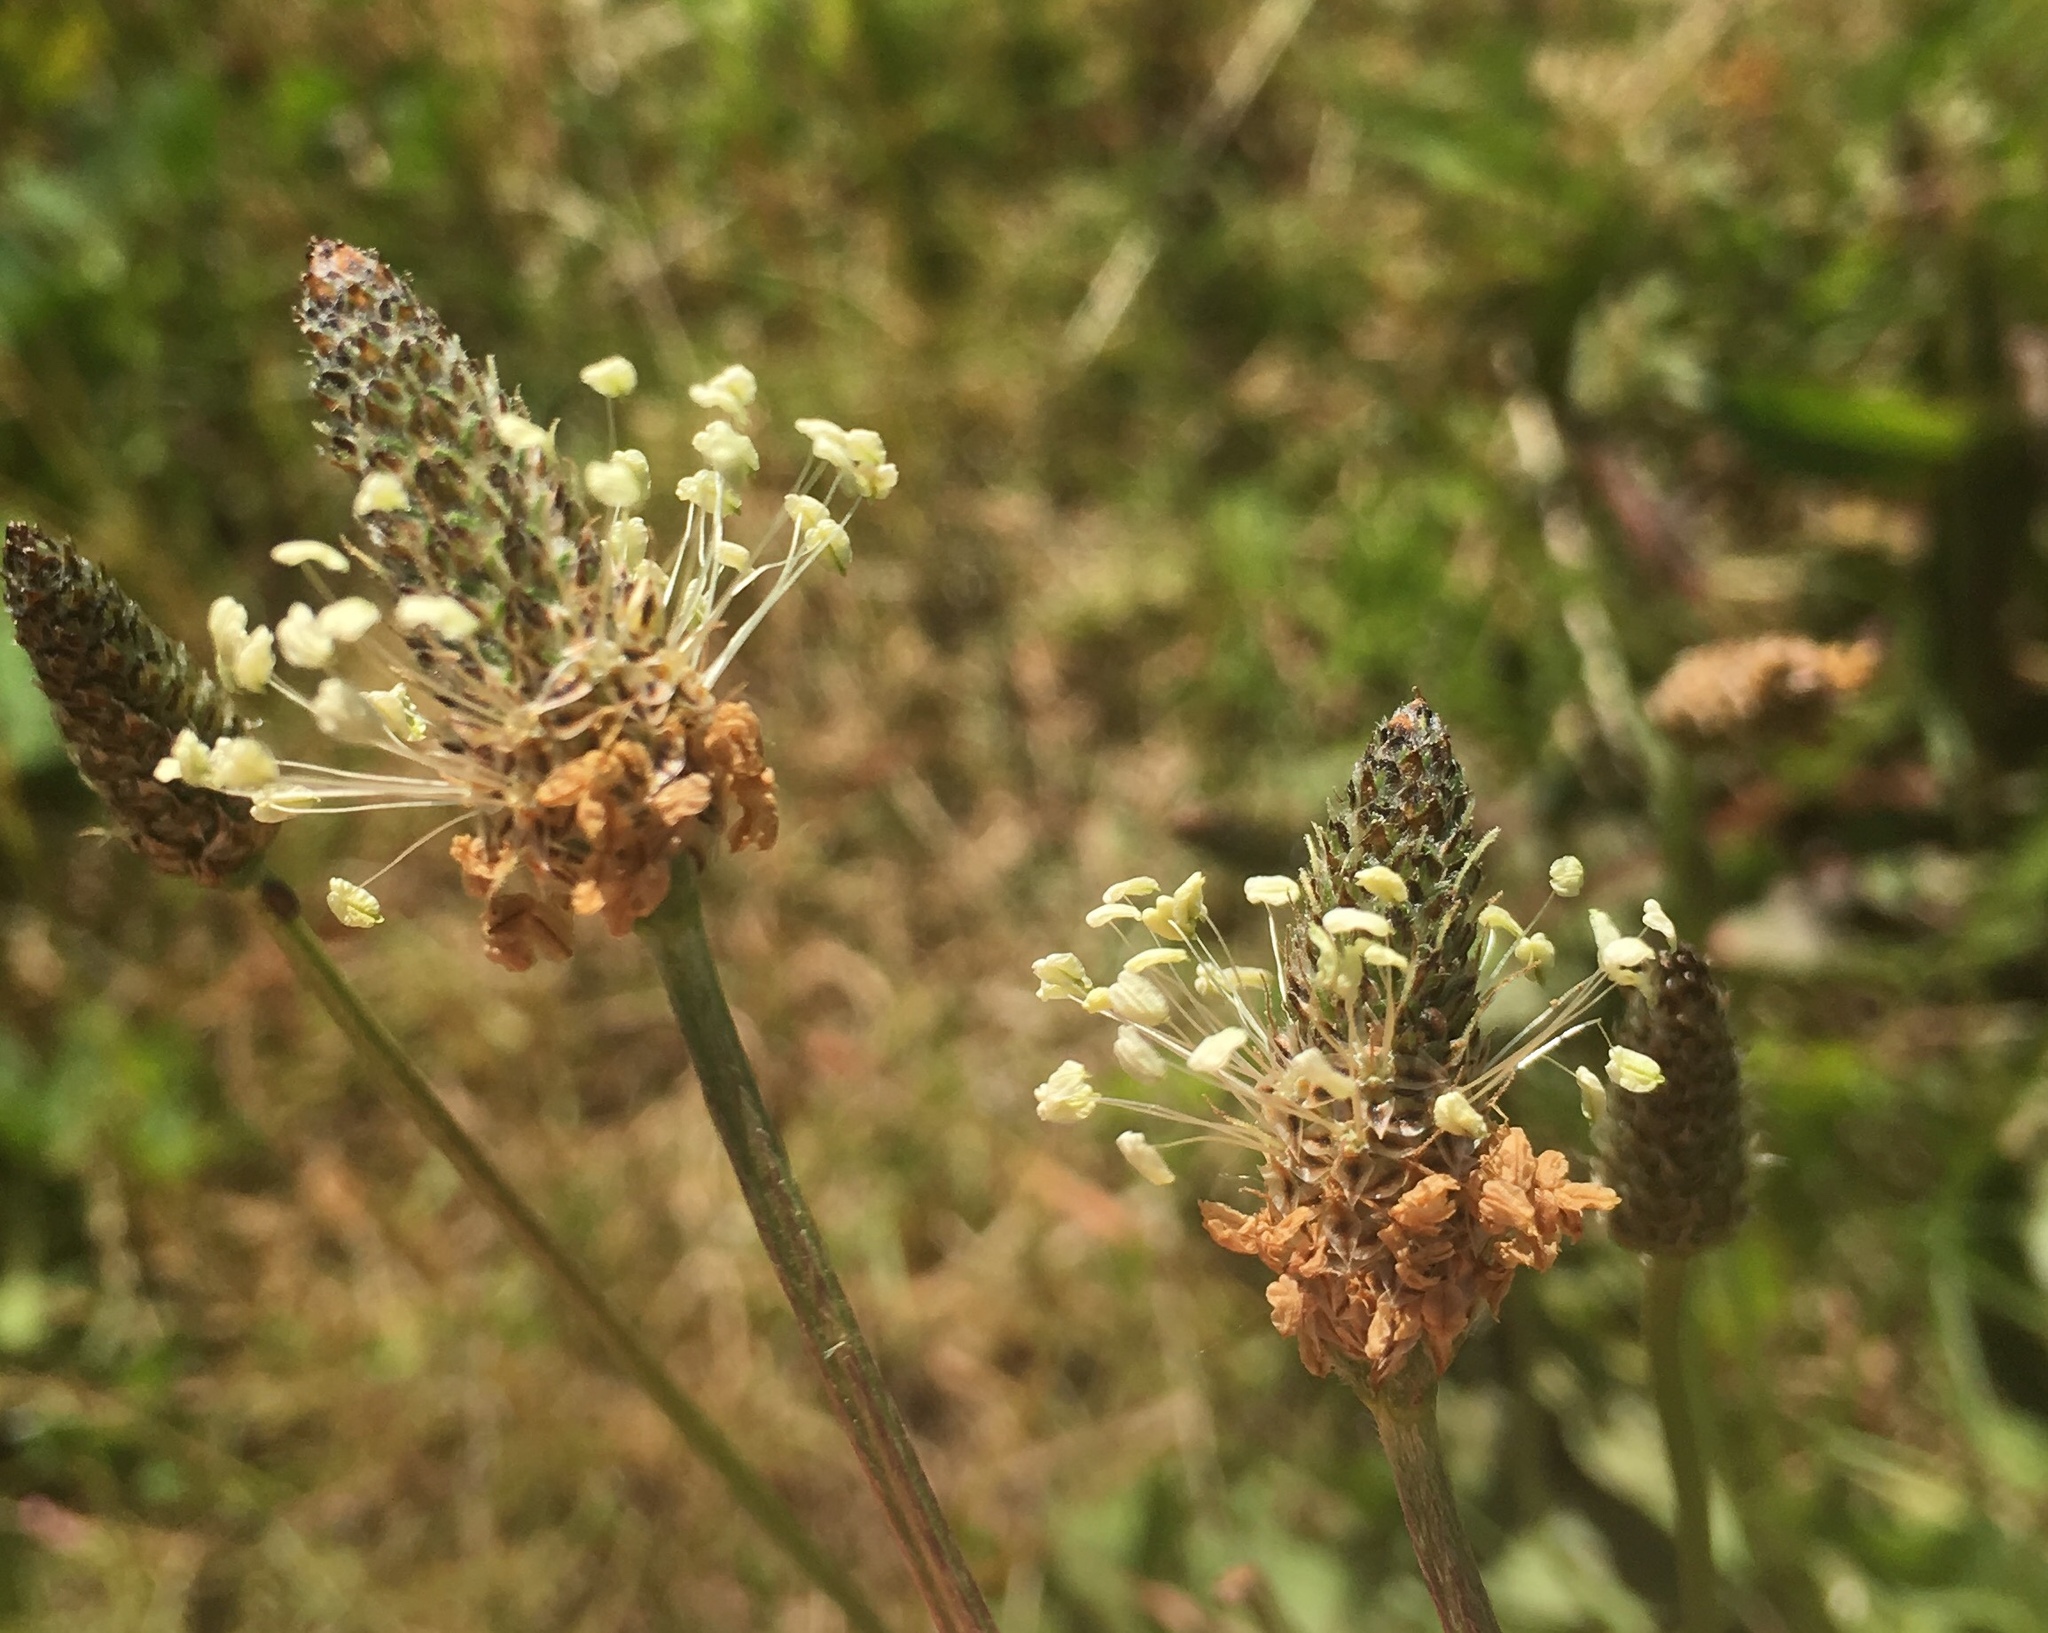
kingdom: Plantae
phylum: Tracheophyta
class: Magnoliopsida
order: Lamiales
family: Plantaginaceae
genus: Plantago
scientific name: Plantago lanceolata
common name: Ribwort plantain
